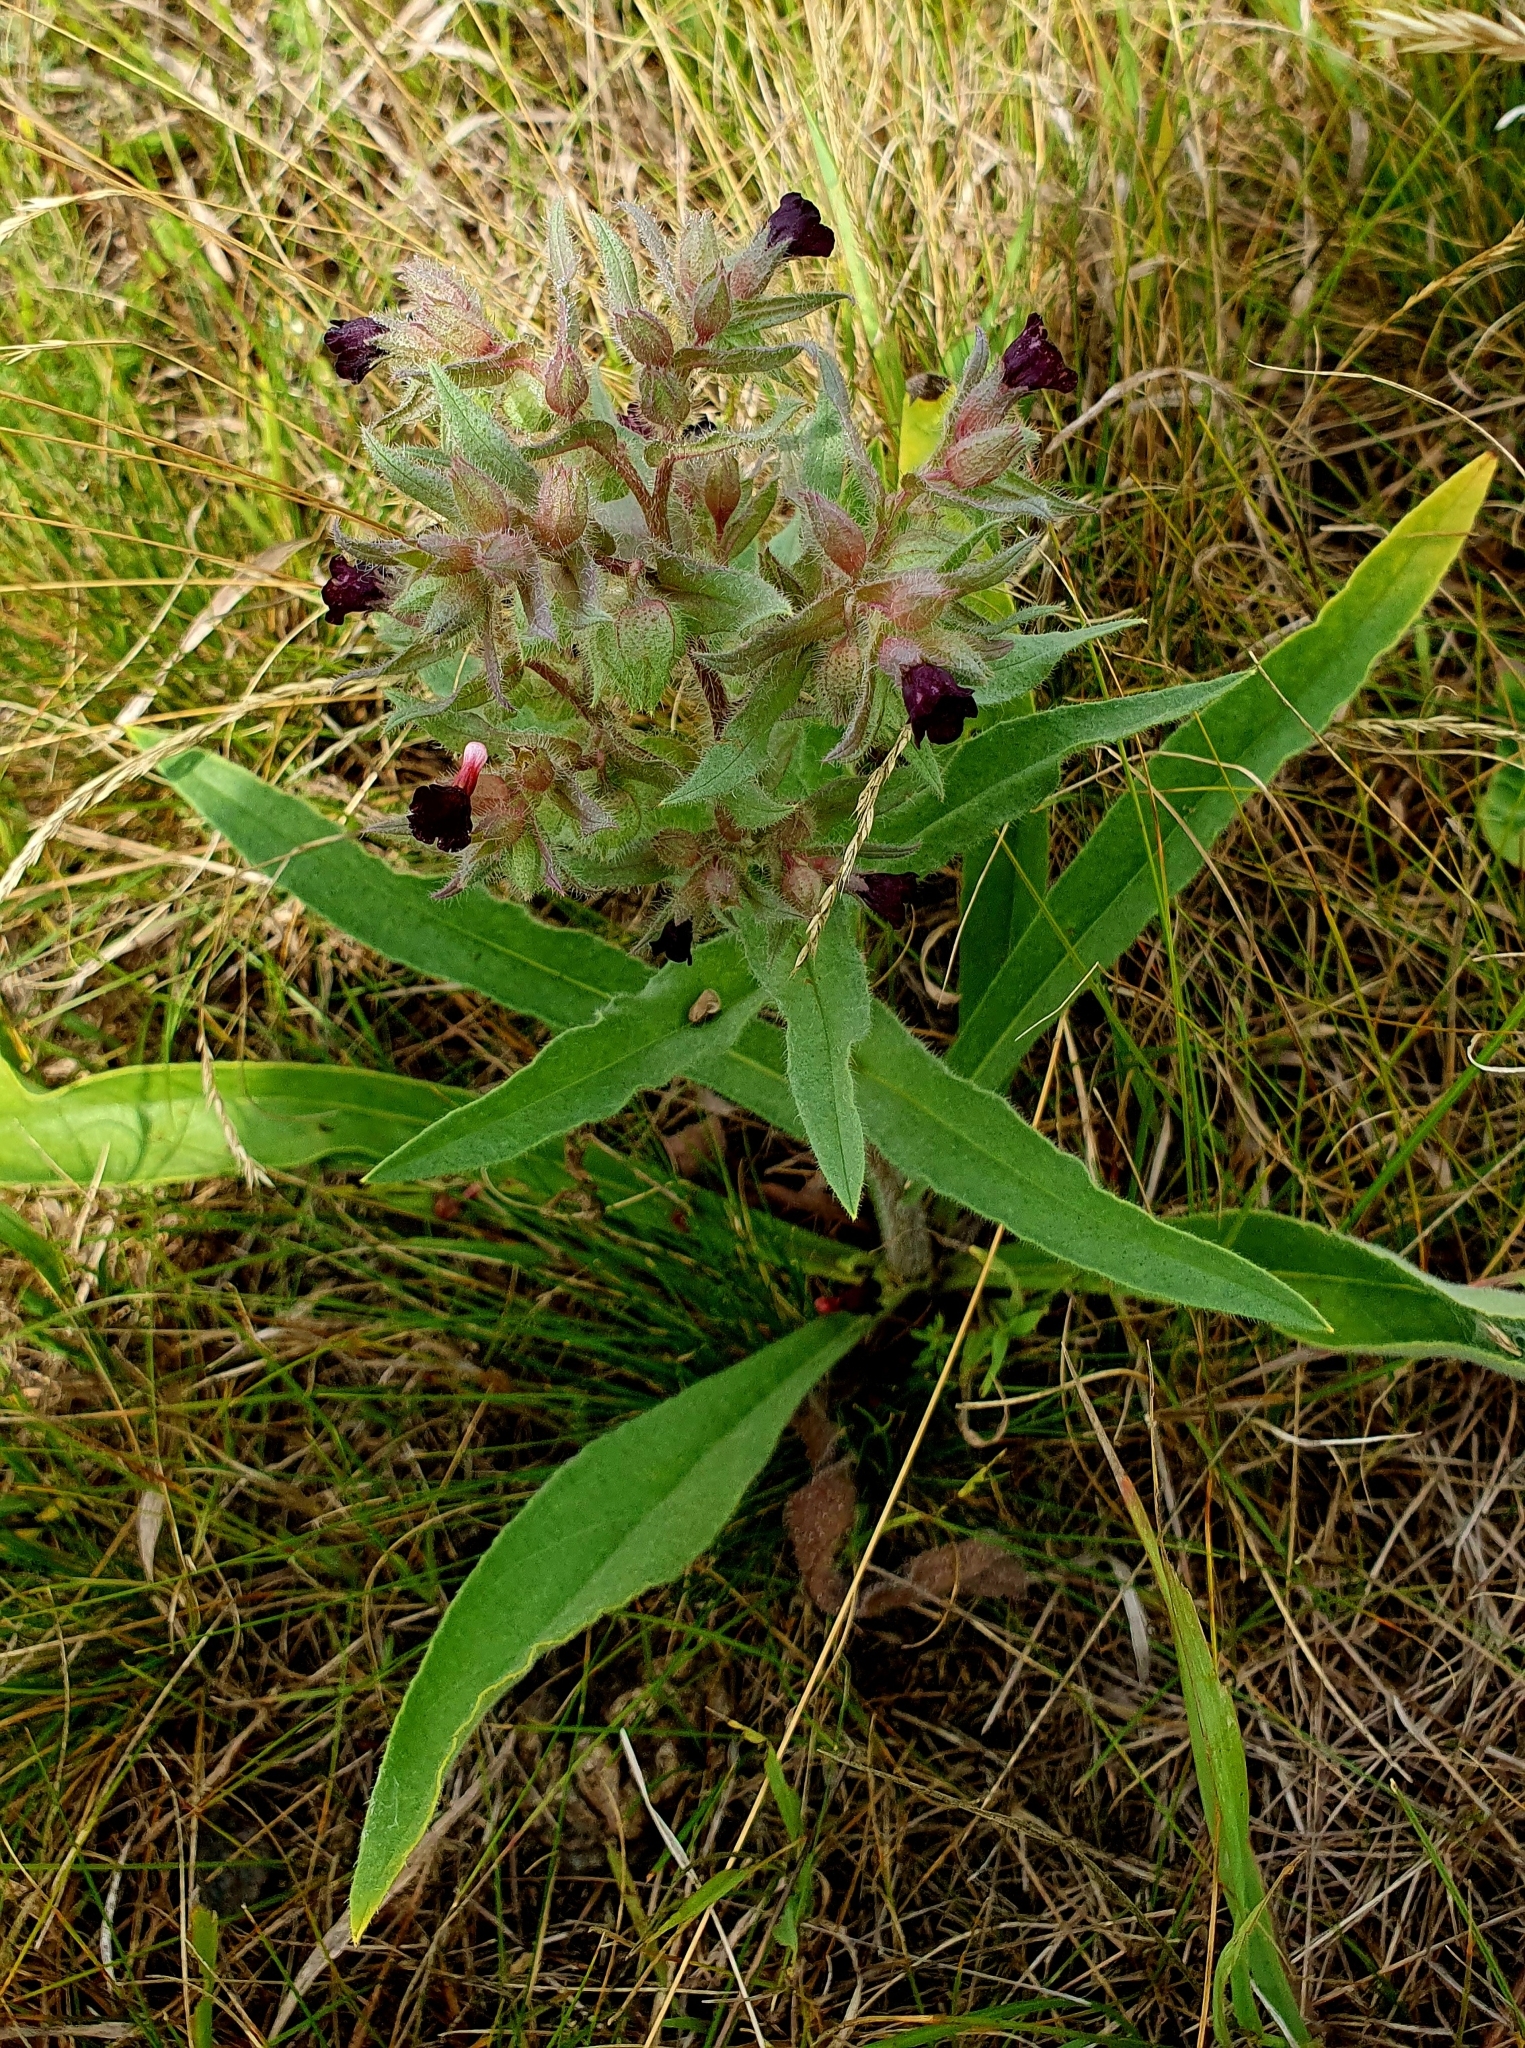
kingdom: Plantae
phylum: Tracheophyta
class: Magnoliopsida
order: Boraginales
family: Boraginaceae
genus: Nonea
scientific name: Nonea pulla
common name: Brown nonea
